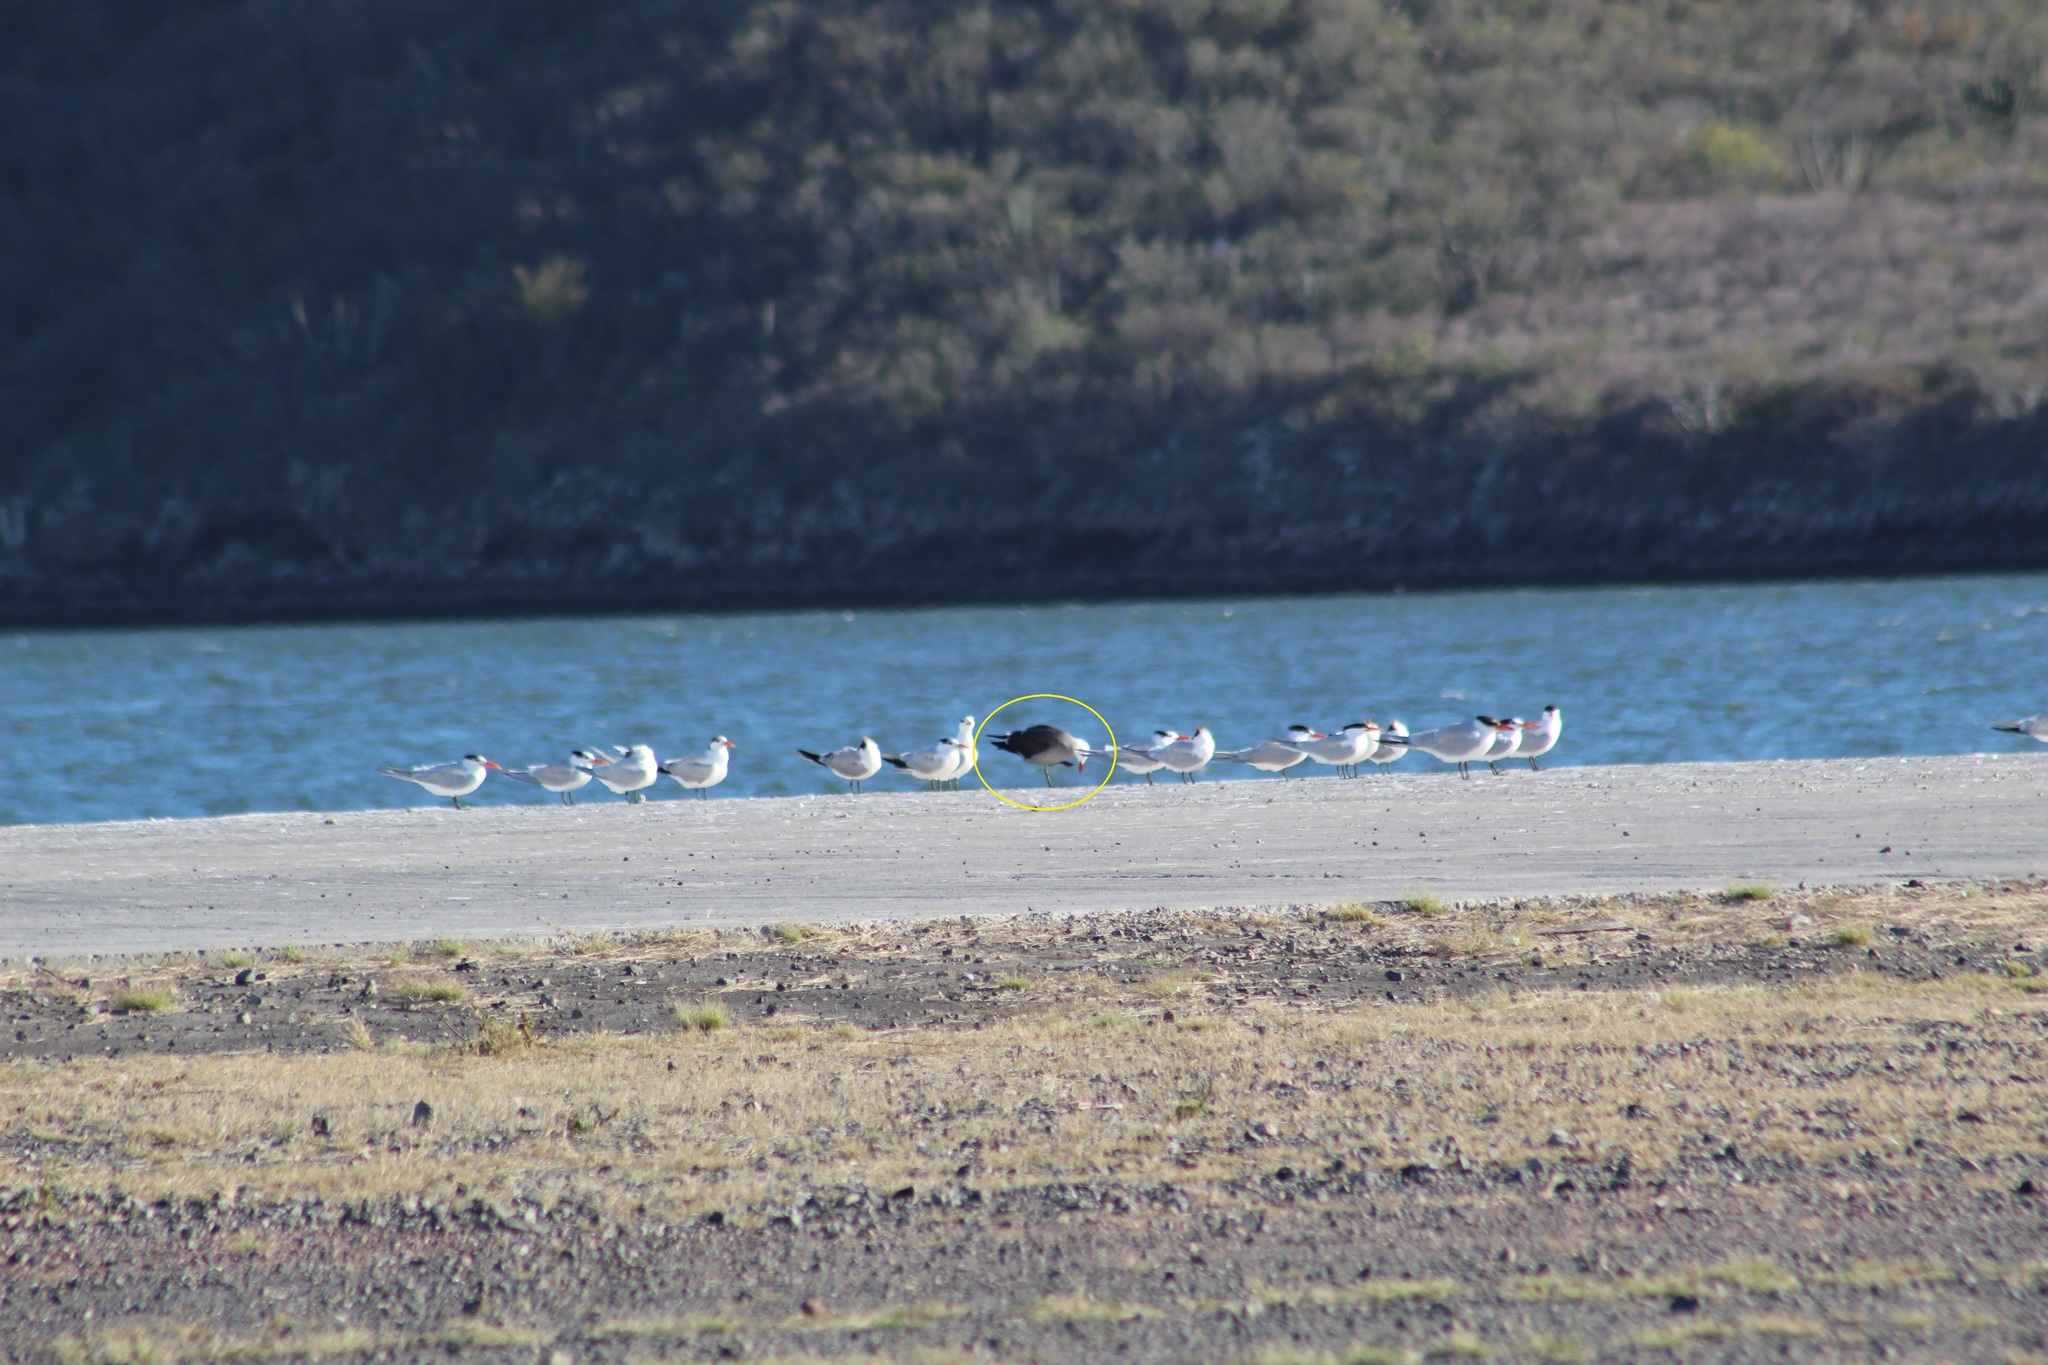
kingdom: Animalia
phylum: Chordata
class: Aves
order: Charadriiformes
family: Laridae
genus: Larus
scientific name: Larus heermanni
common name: Heermann's gull
